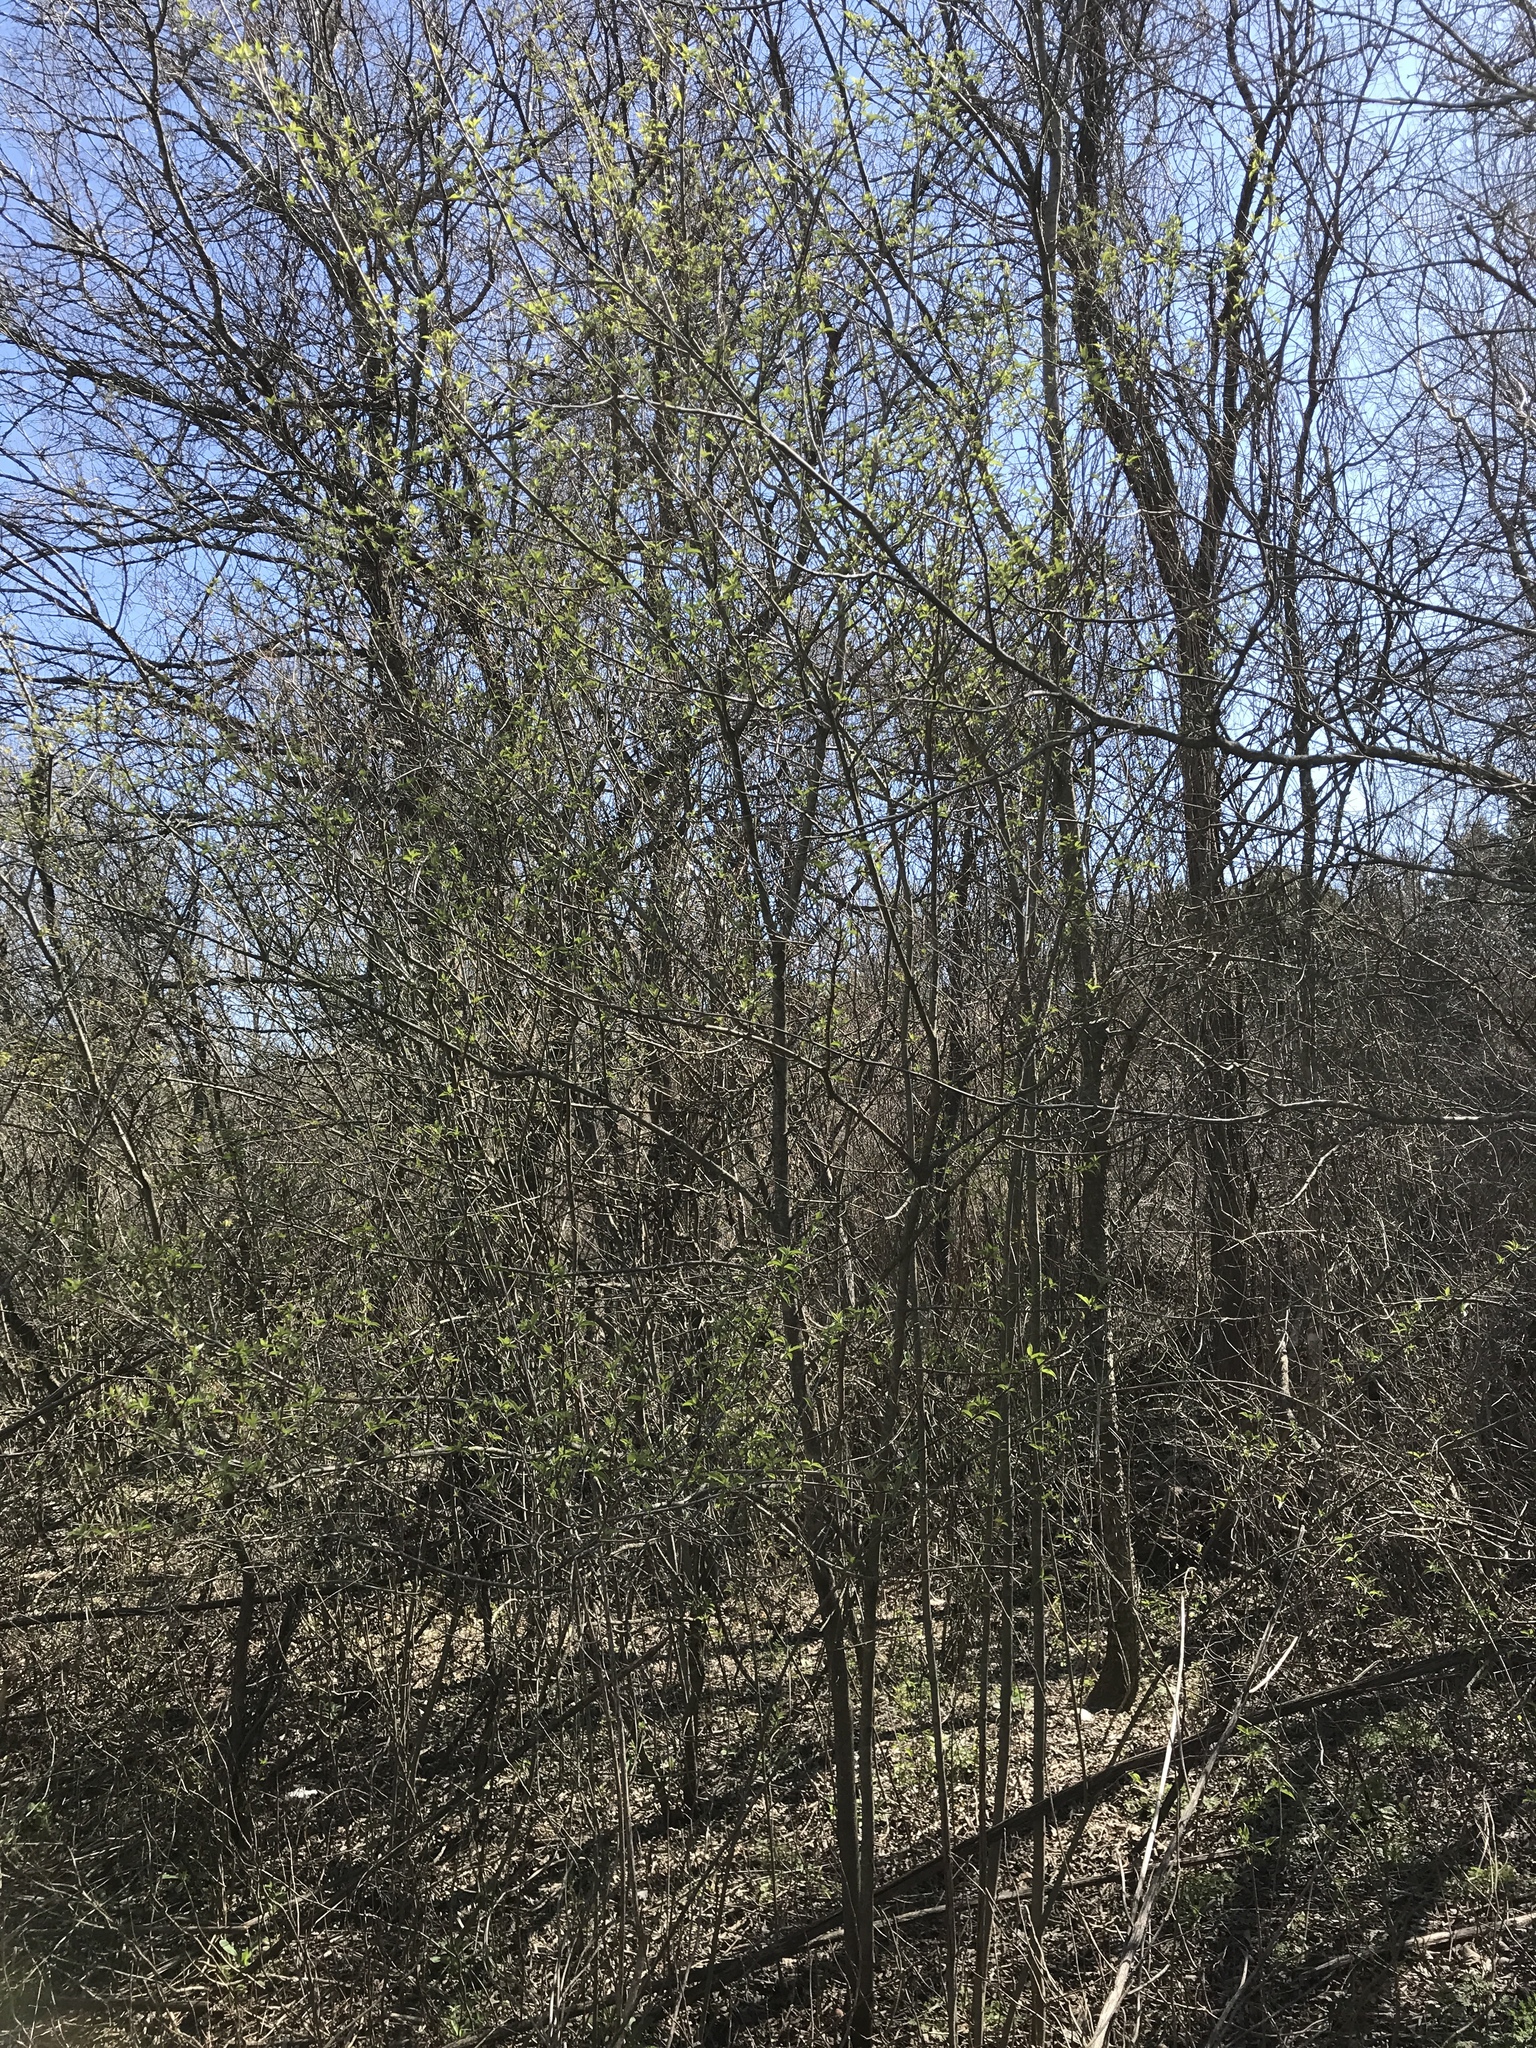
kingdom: Plantae
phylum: Tracheophyta
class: Magnoliopsida
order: Cornales
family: Cornaceae
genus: Cornus
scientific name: Cornus drummondii
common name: Rough-leaf dogwood
